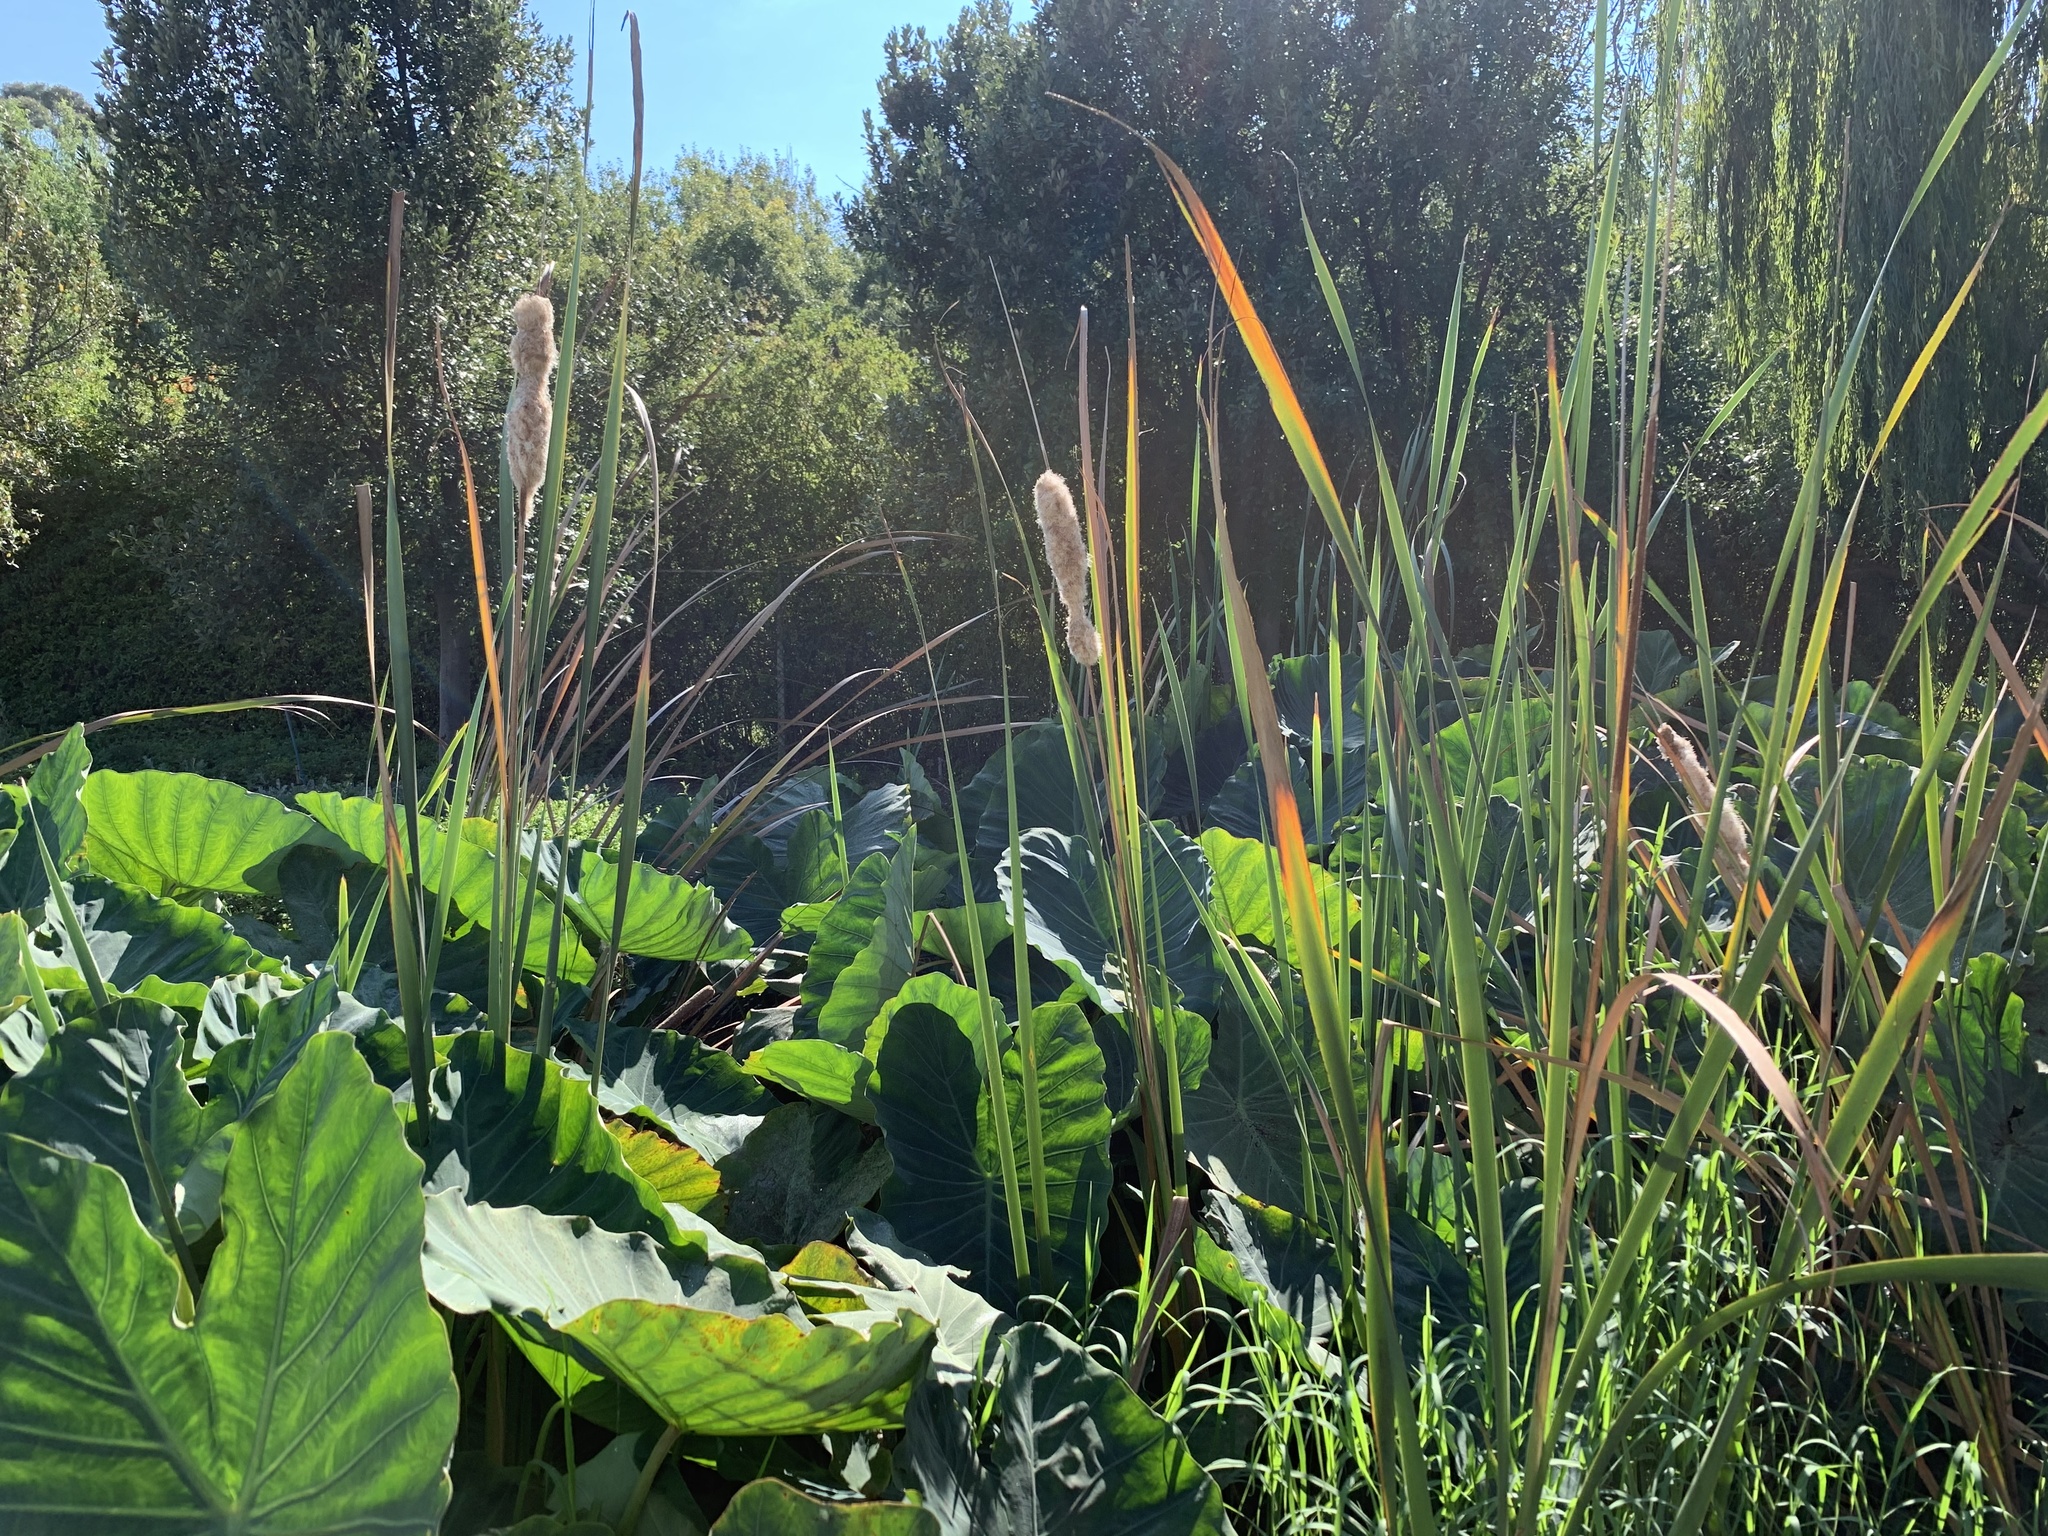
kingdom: Plantae
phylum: Tracheophyta
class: Liliopsida
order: Poales
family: Typhaceae
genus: Typha
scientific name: Typha capensis
